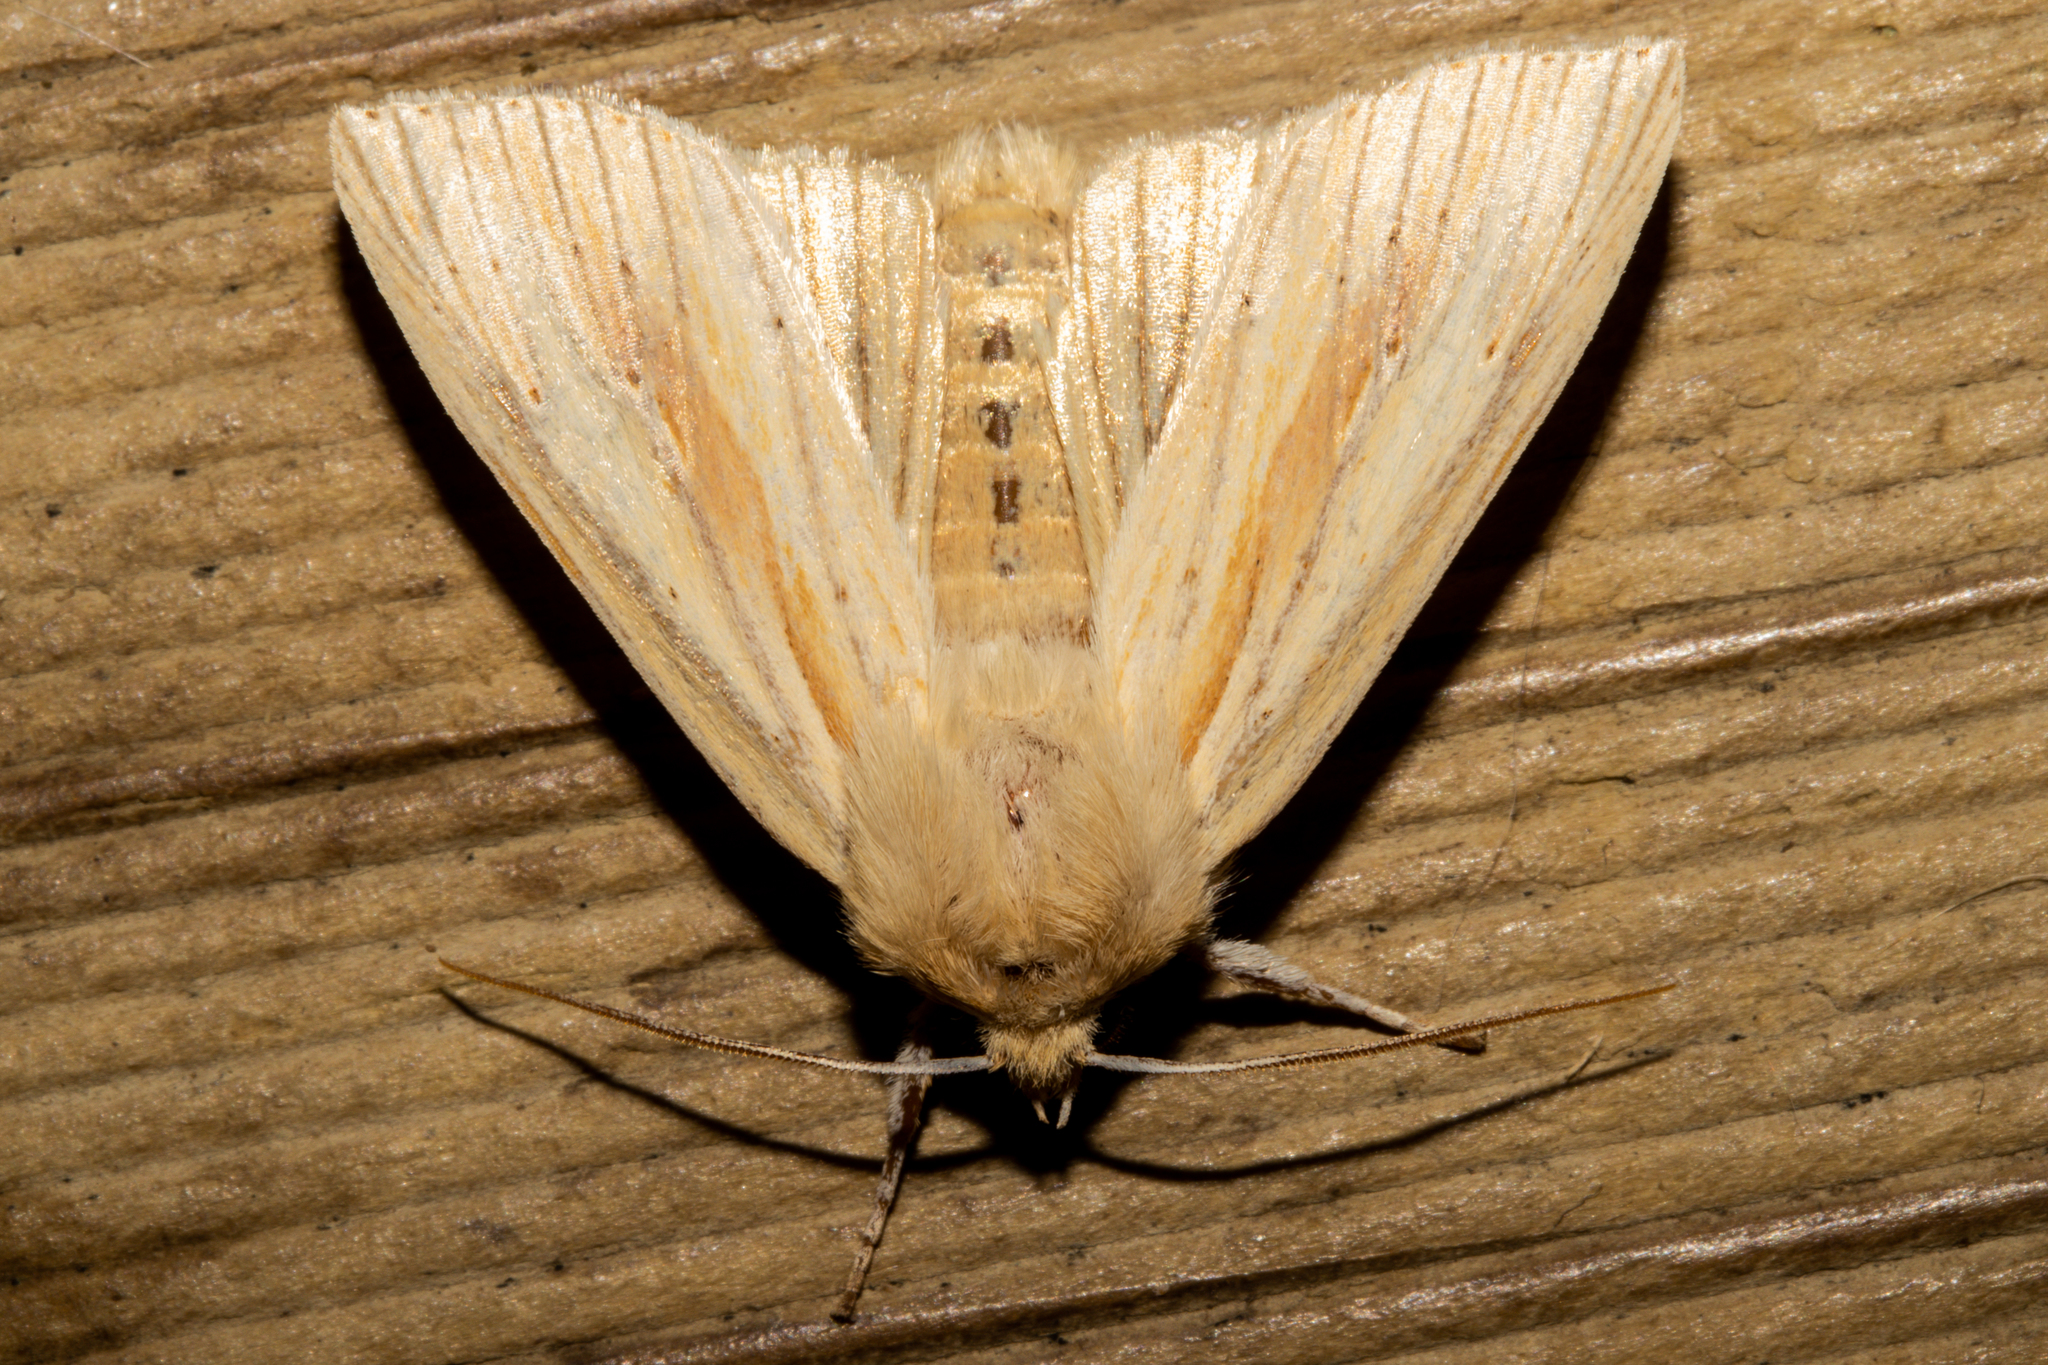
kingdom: Animalia
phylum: Arthropoda
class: Insecta
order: Lepidoptera
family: Noctuidae
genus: Ichneutica
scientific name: Ichneutica semivittata
